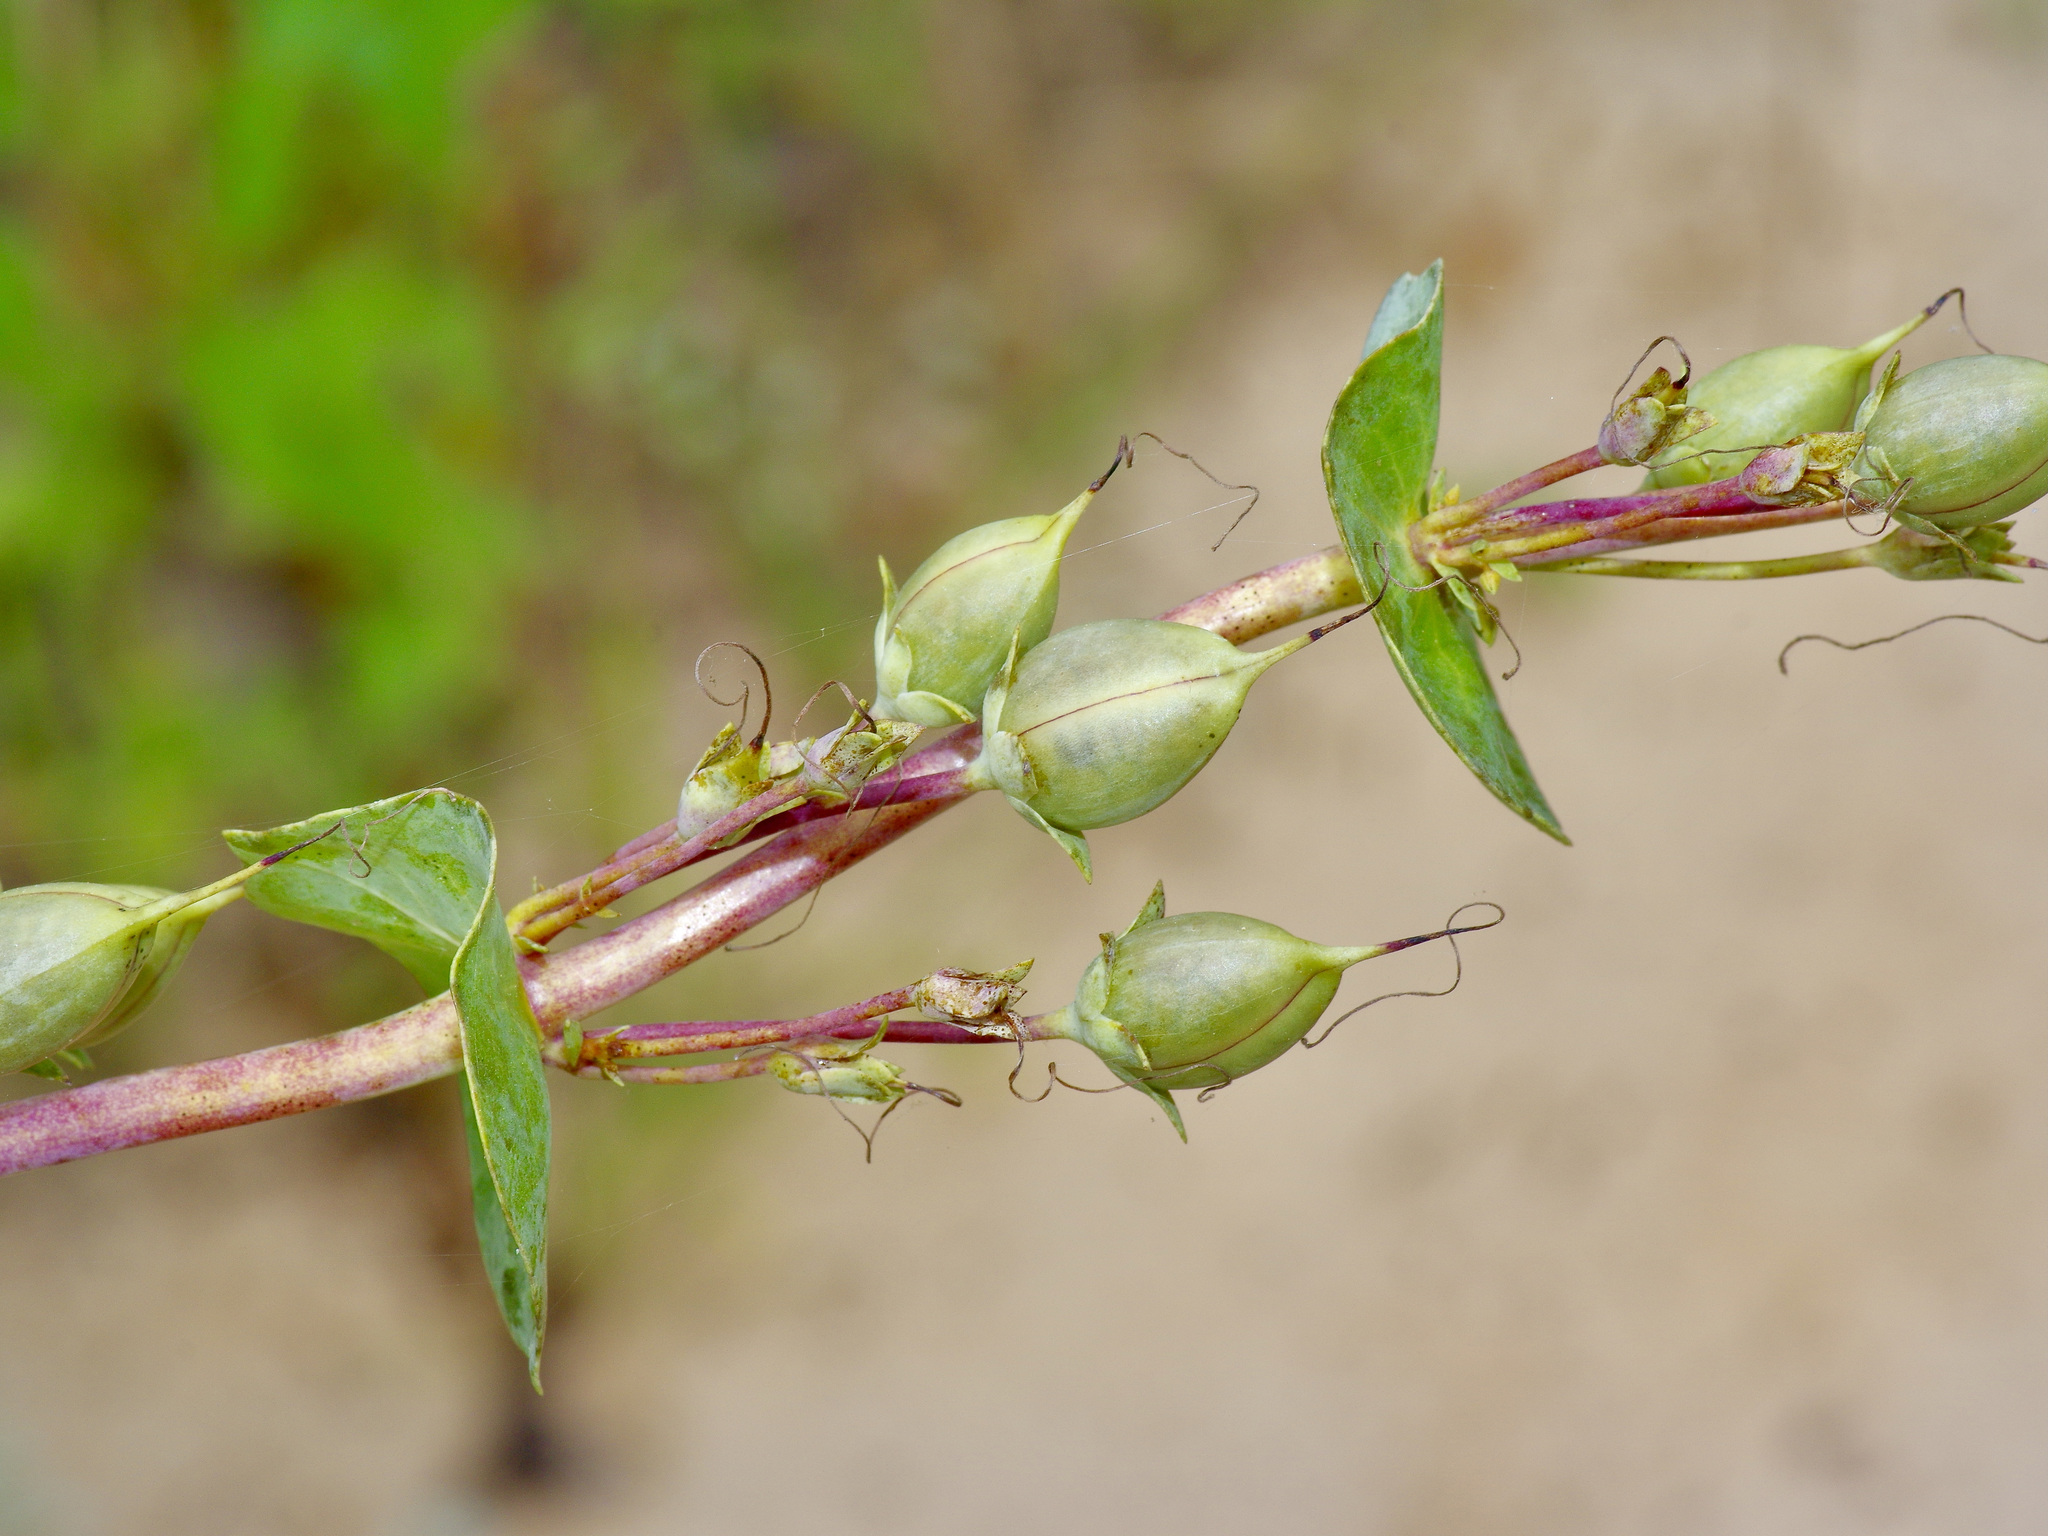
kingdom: Plantae
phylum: Tracheophyta
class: Magnoliopsida
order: Lamiales
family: Plantaginaceae
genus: Penstemon
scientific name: Penstemon murrayanus
